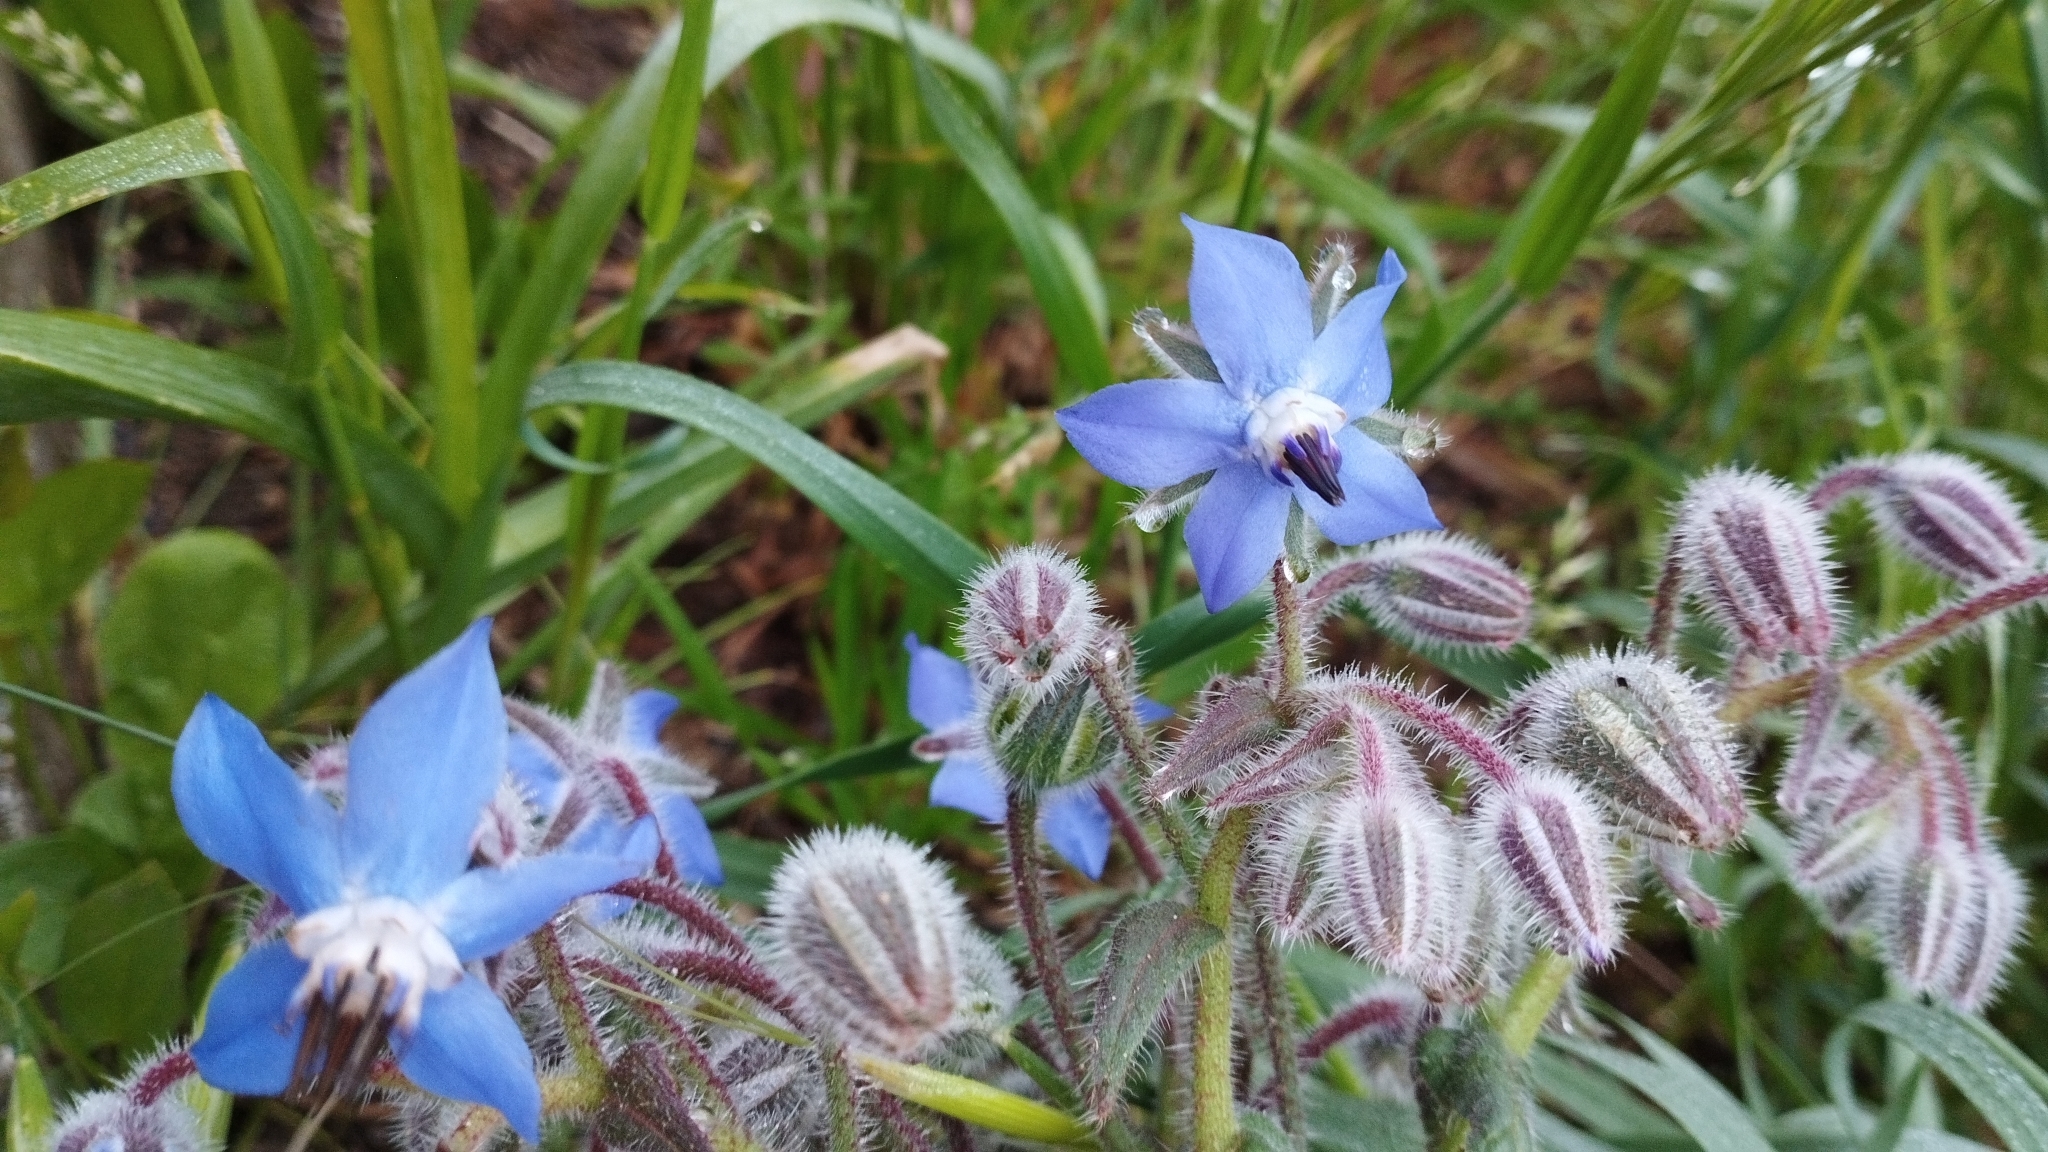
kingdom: Plantae
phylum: Tracheophyta
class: Magnoliopsida
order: Boraginales
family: Boraginaceae
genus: Borago
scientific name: Borago officinalis
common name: Borage
